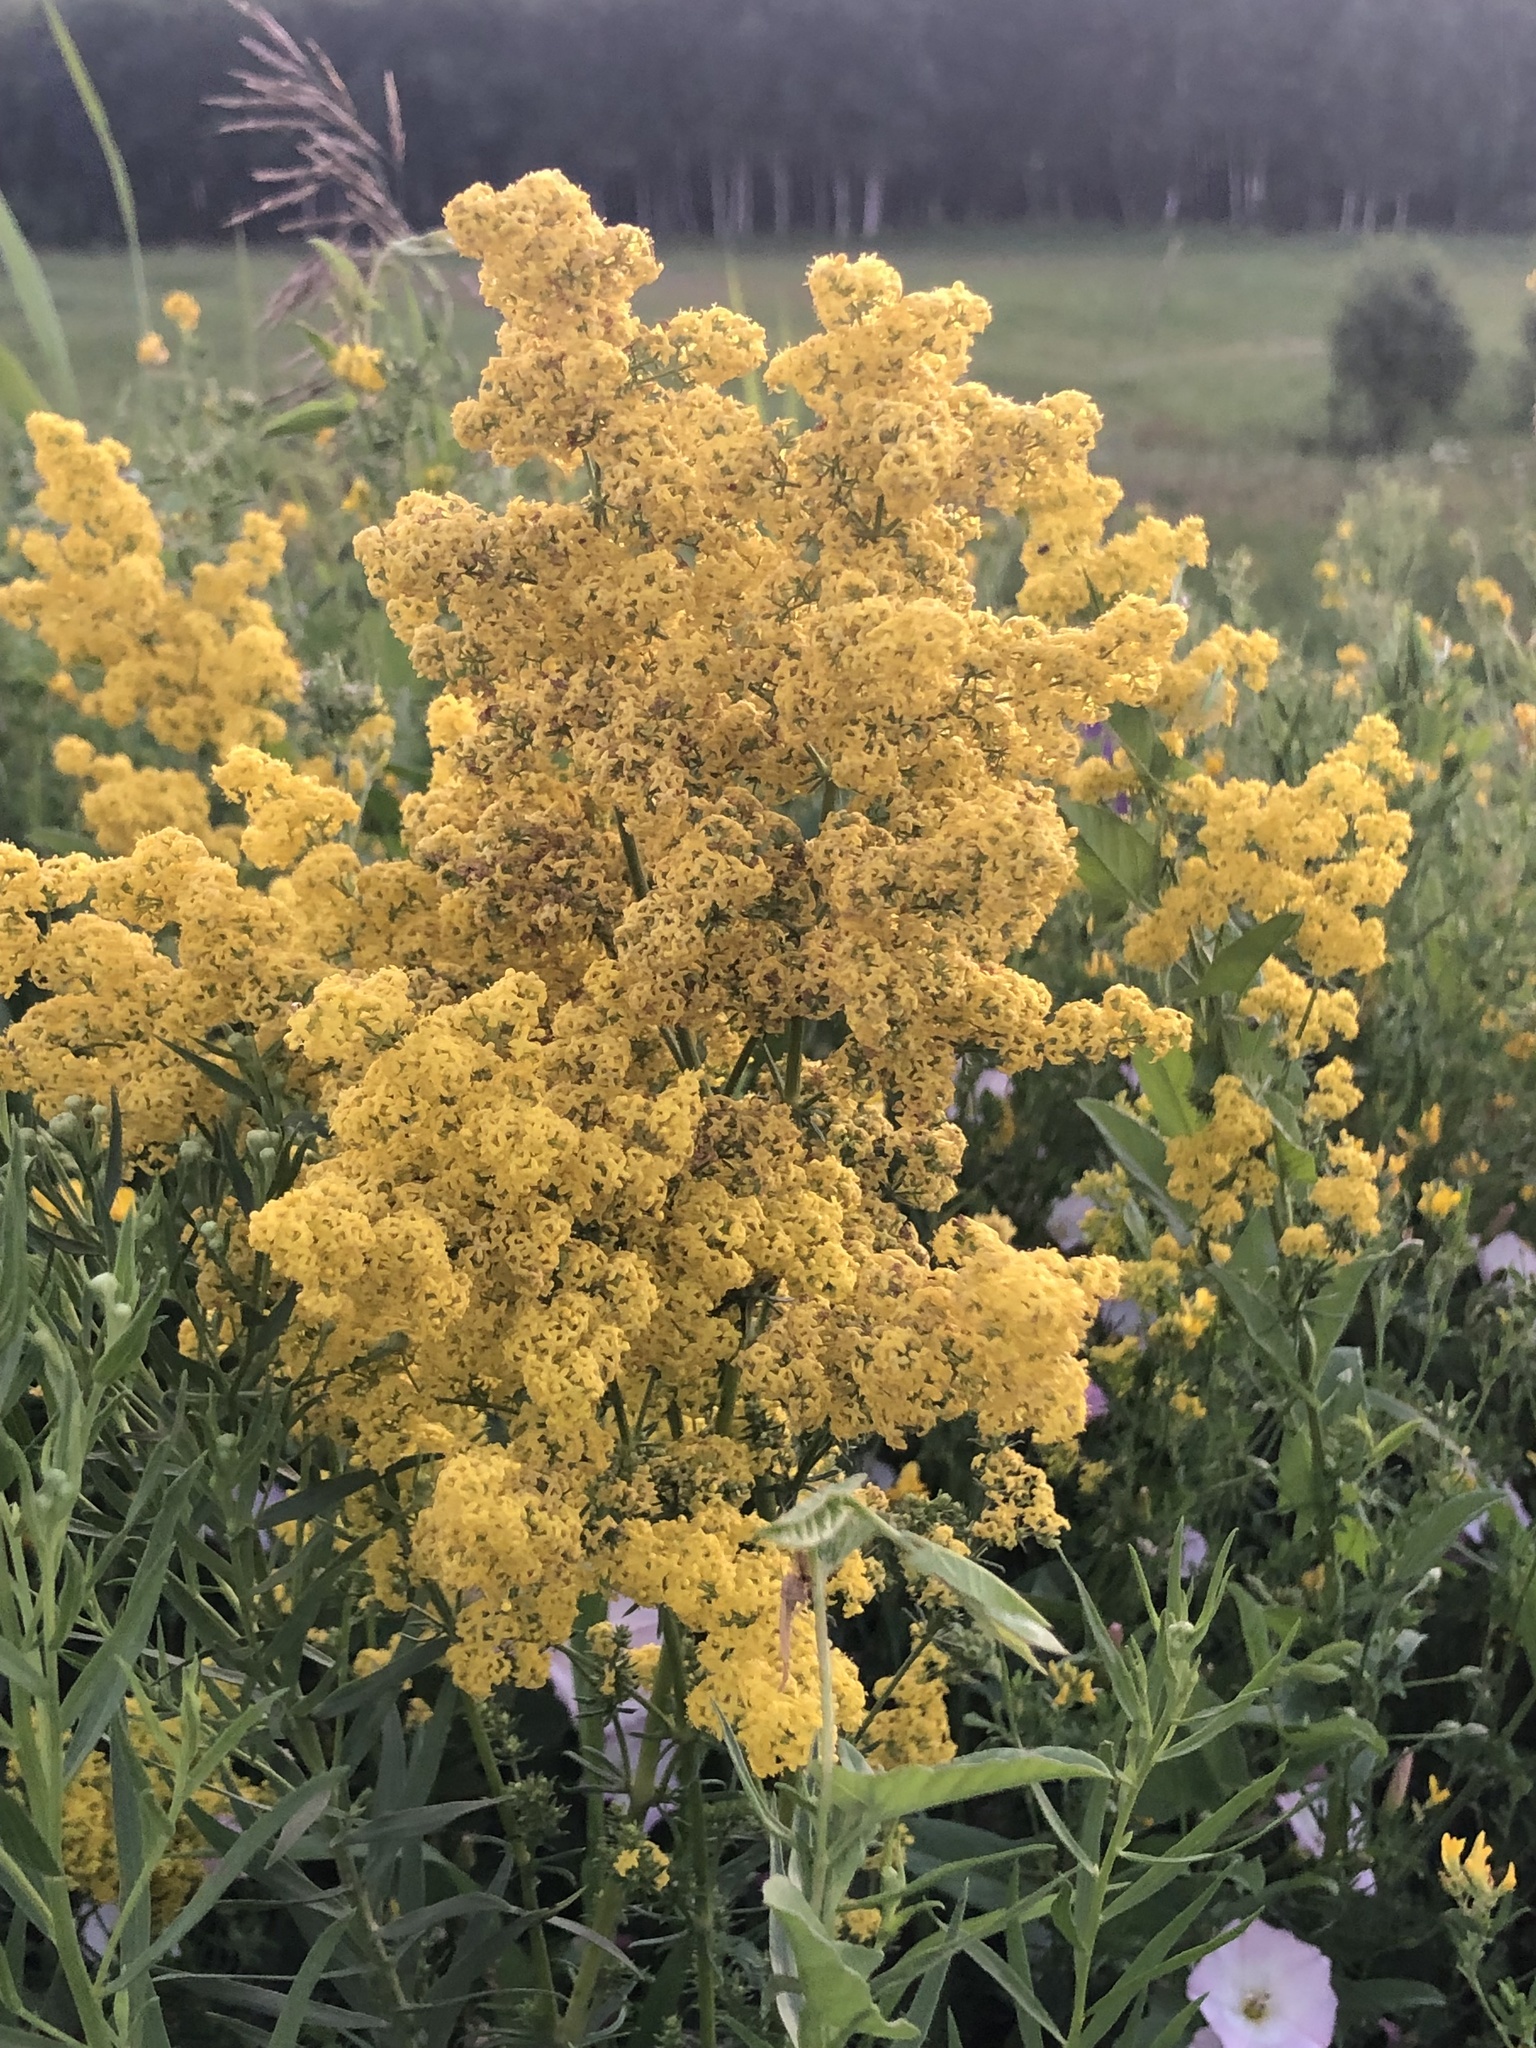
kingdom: Plantae
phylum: Tracheophyta
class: Magnoliopsida
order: Gentianales
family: Rubiaceae
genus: Galium
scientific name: Galium verum
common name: Lady's bedstraw
